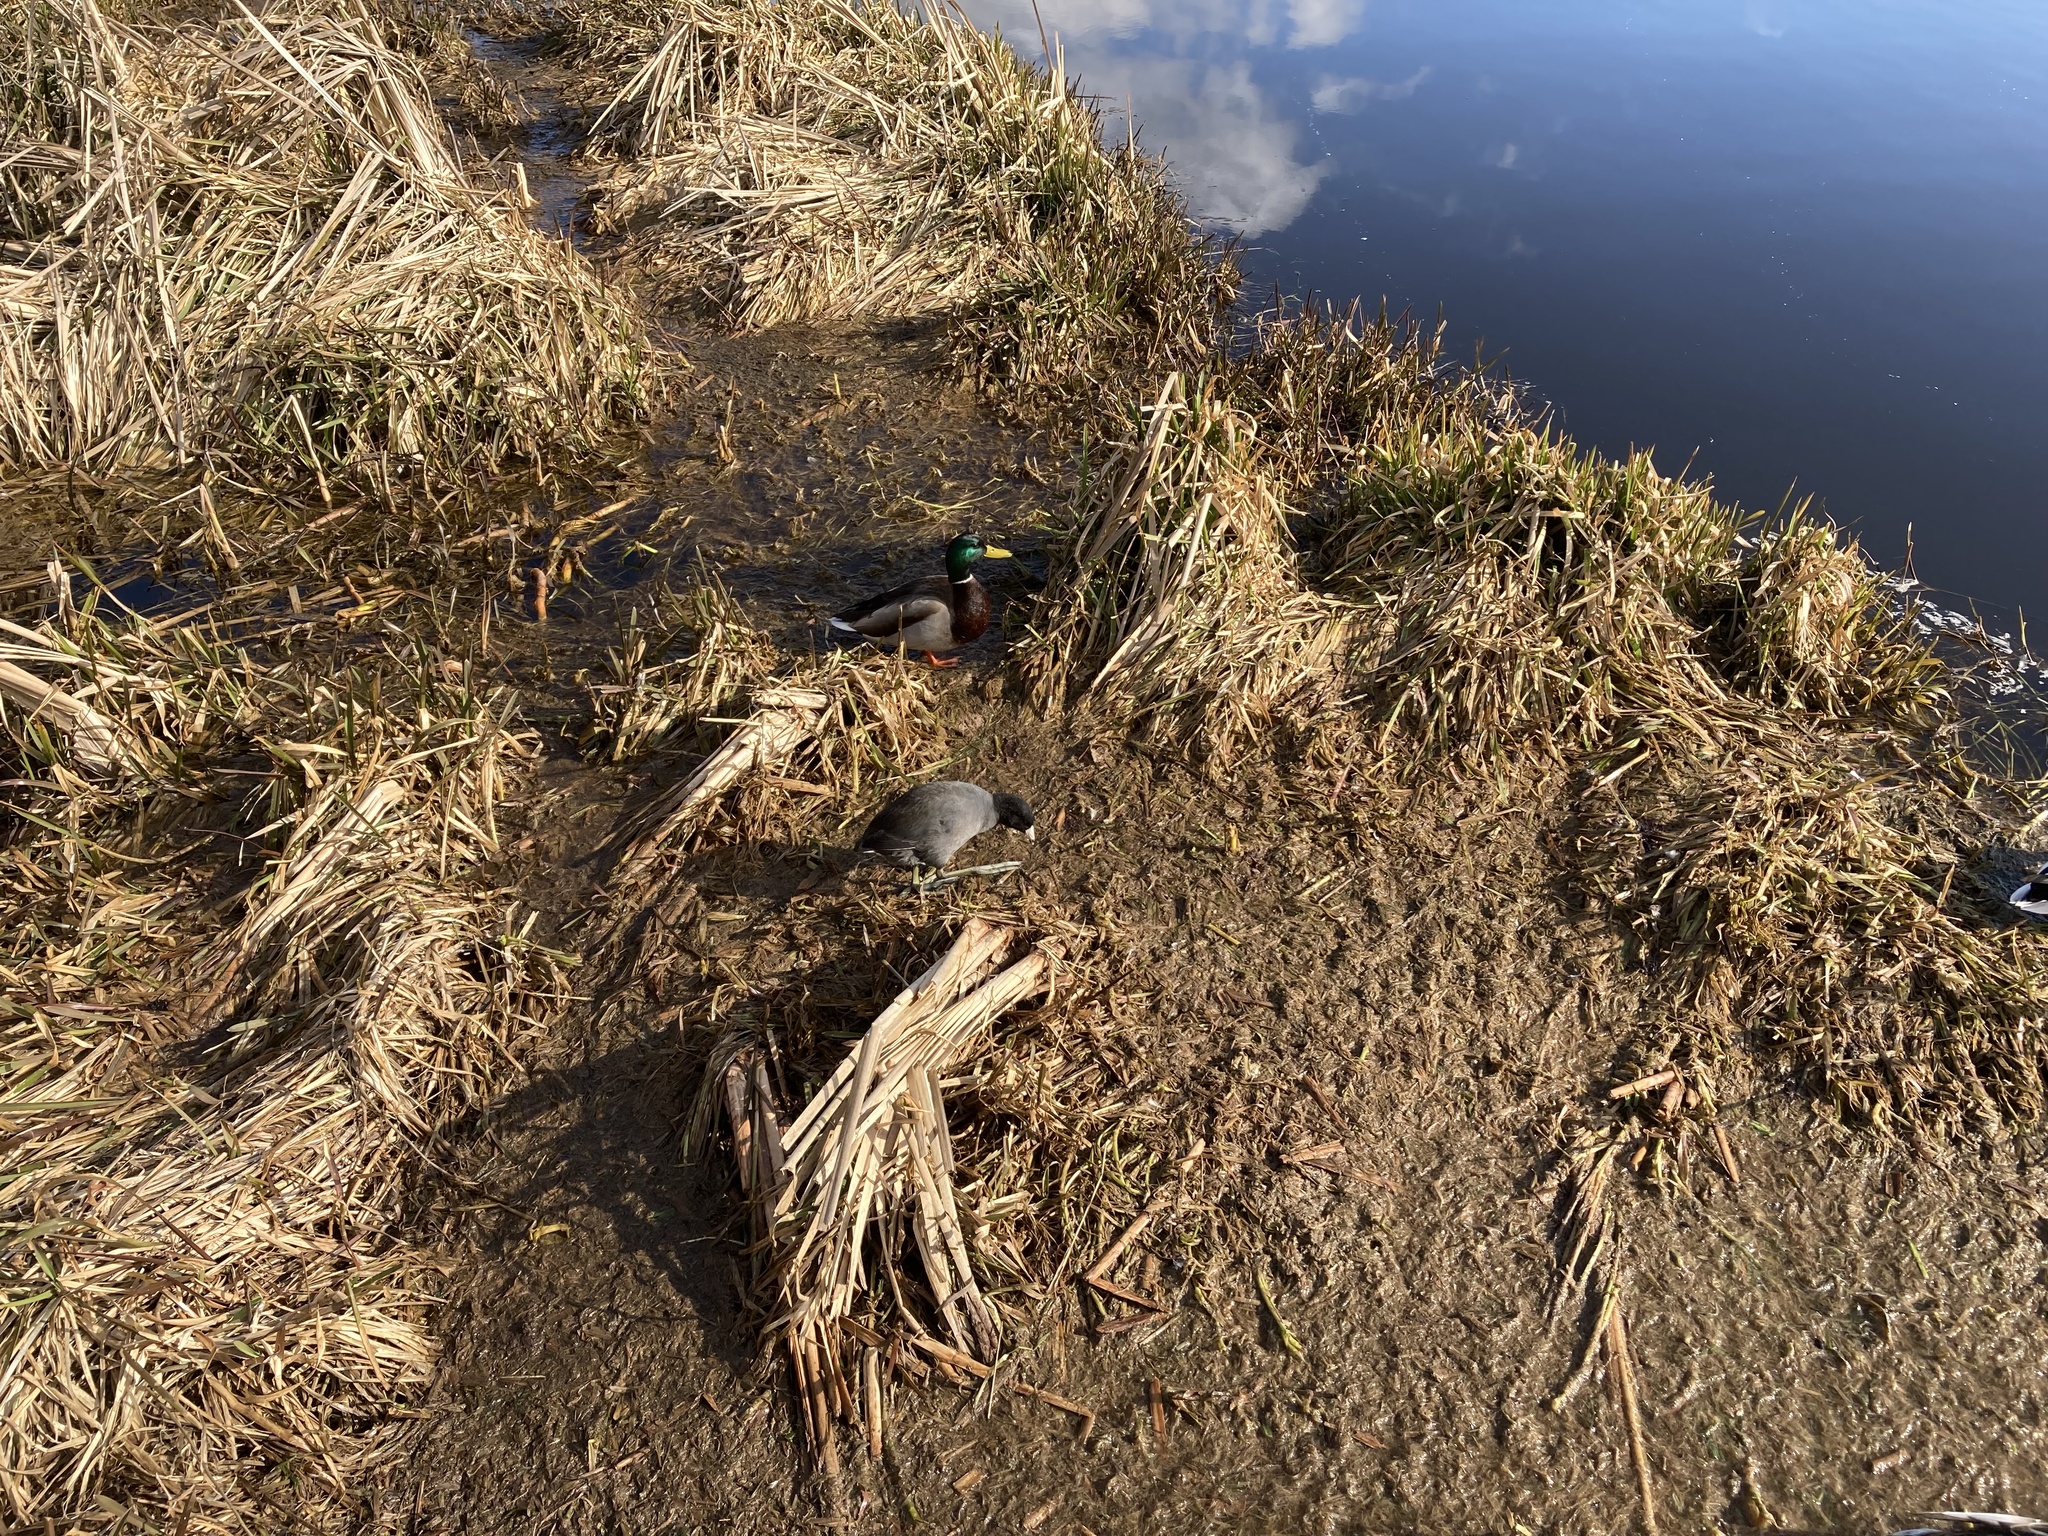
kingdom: Animalia
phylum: Chordata
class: Aves
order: Gruiformes
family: Rallidae
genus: Fulica
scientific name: Fulica americana
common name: American coot
